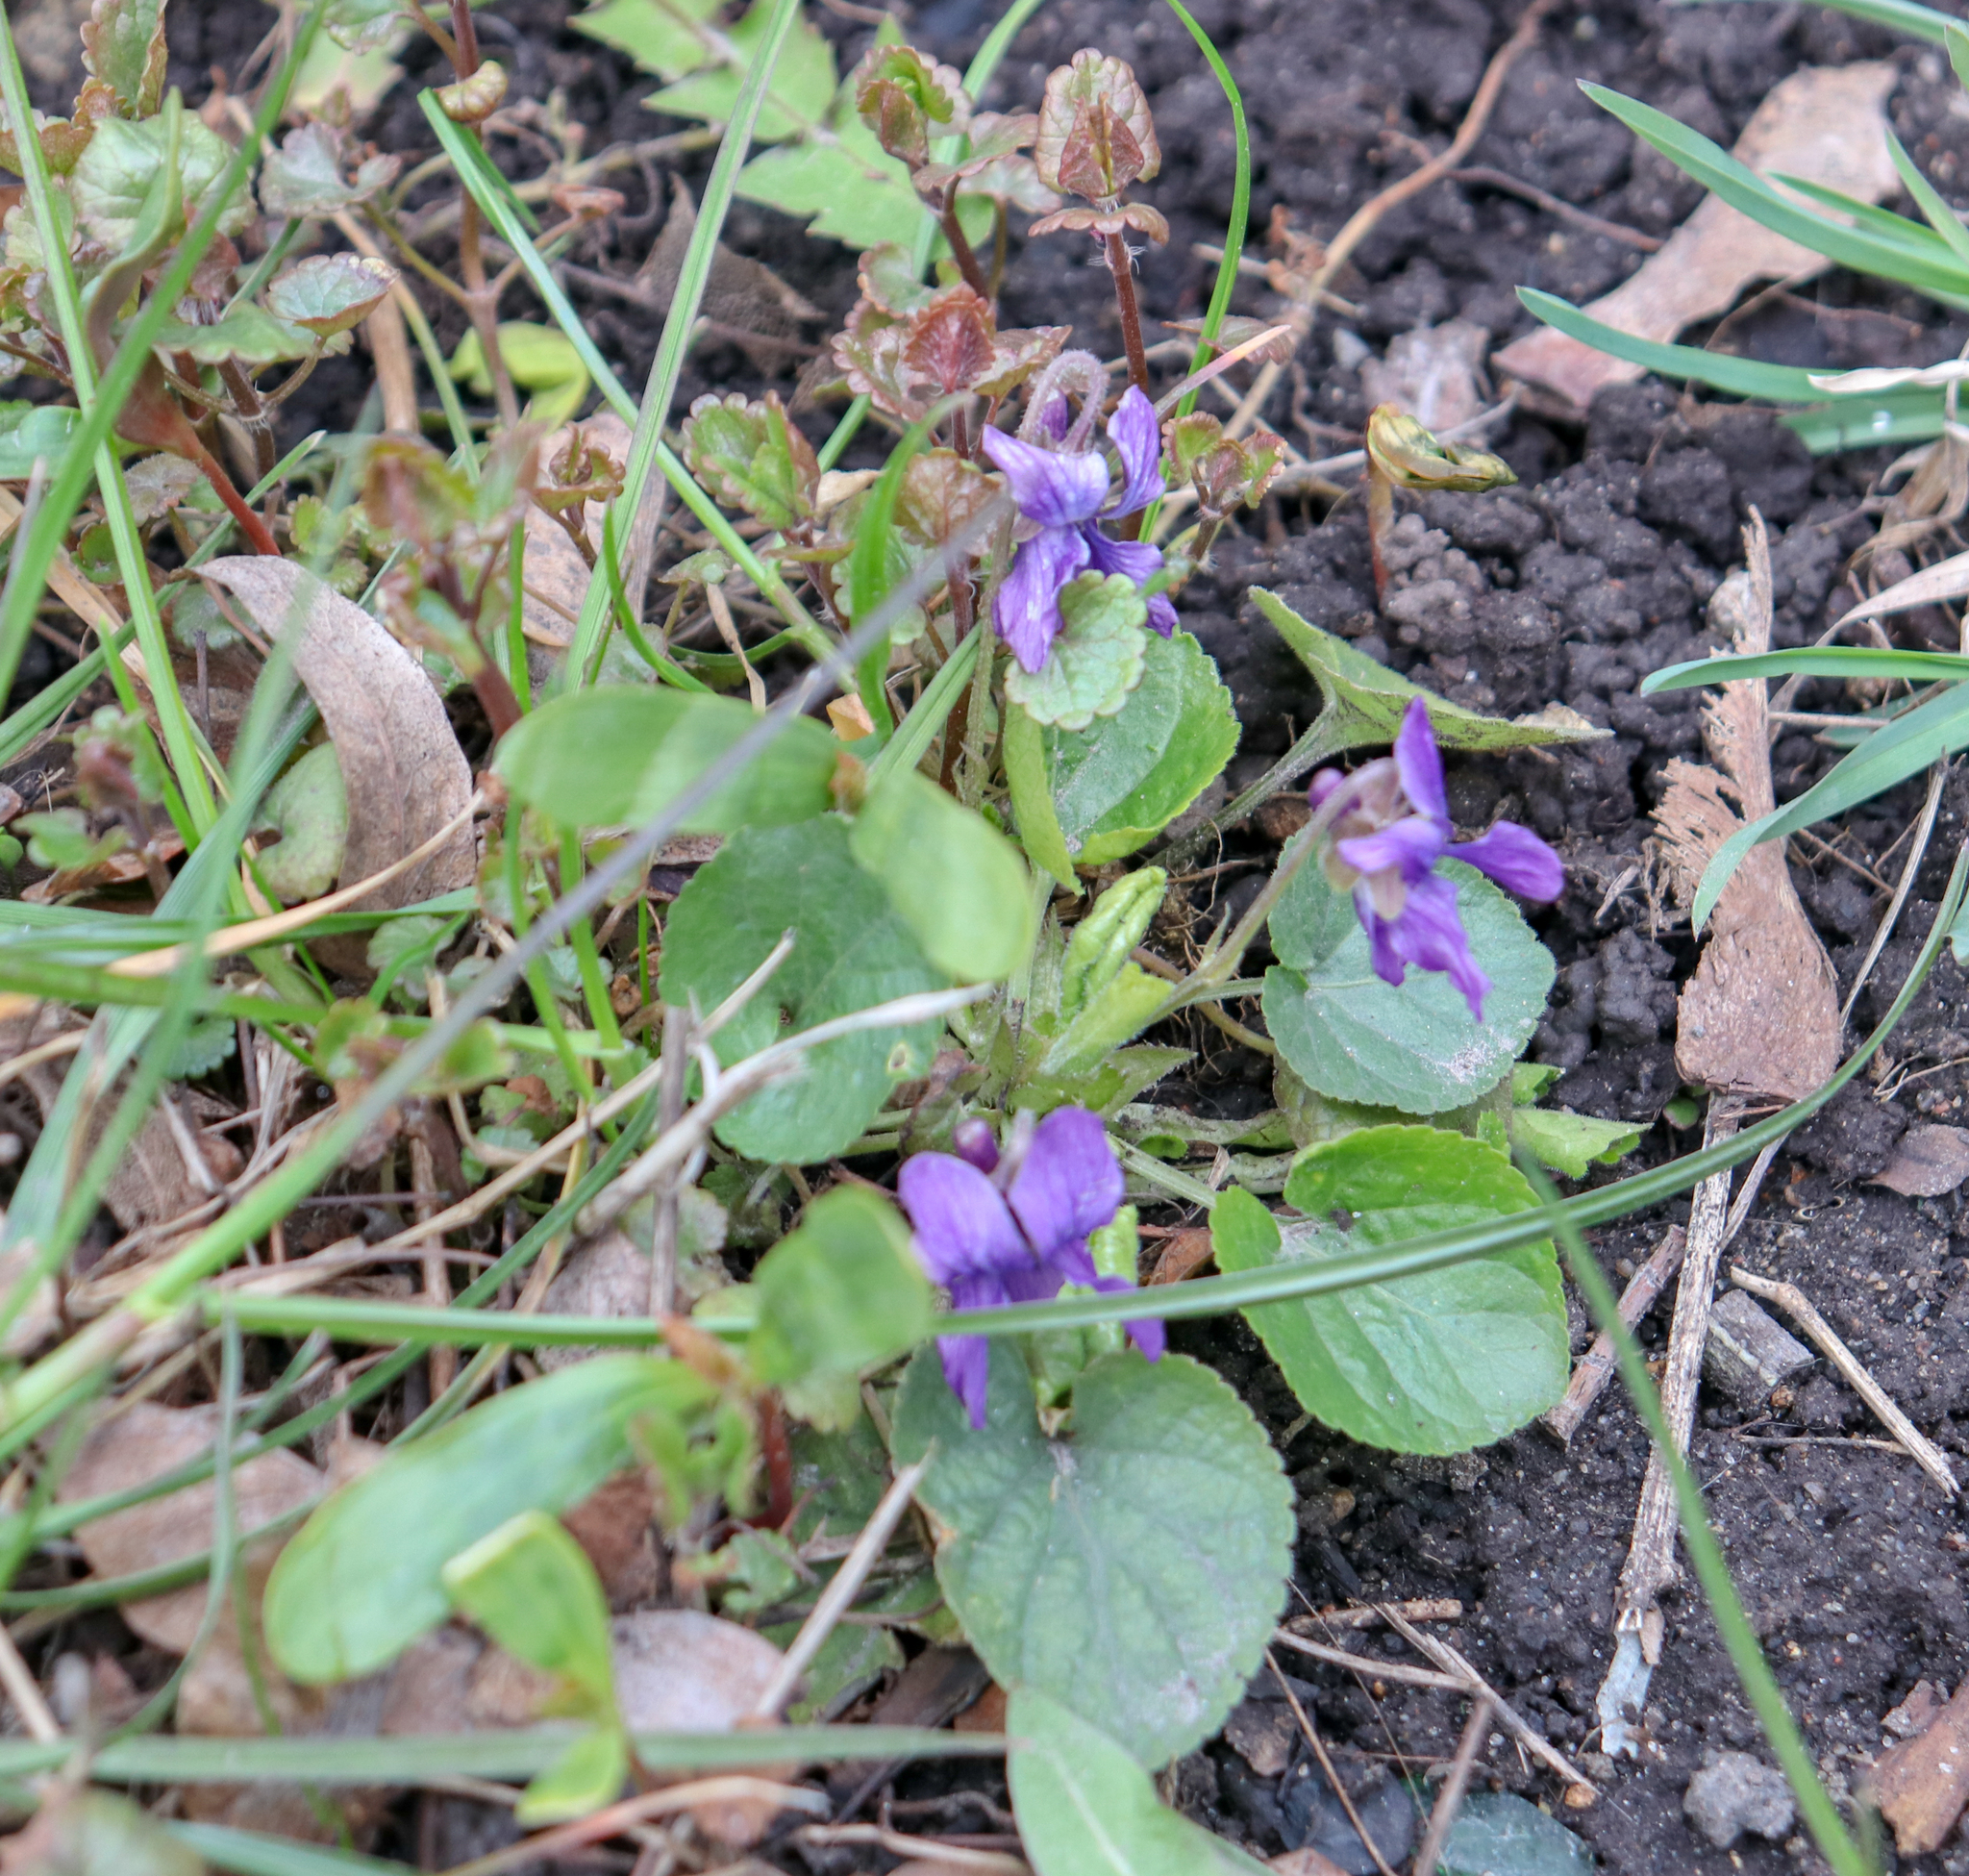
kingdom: Plantae
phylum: Tracheophyta
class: Magnoliopsida
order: Malpighiales
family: Violaceae
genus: Viola
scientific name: Viola odorata
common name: Sweet violet
